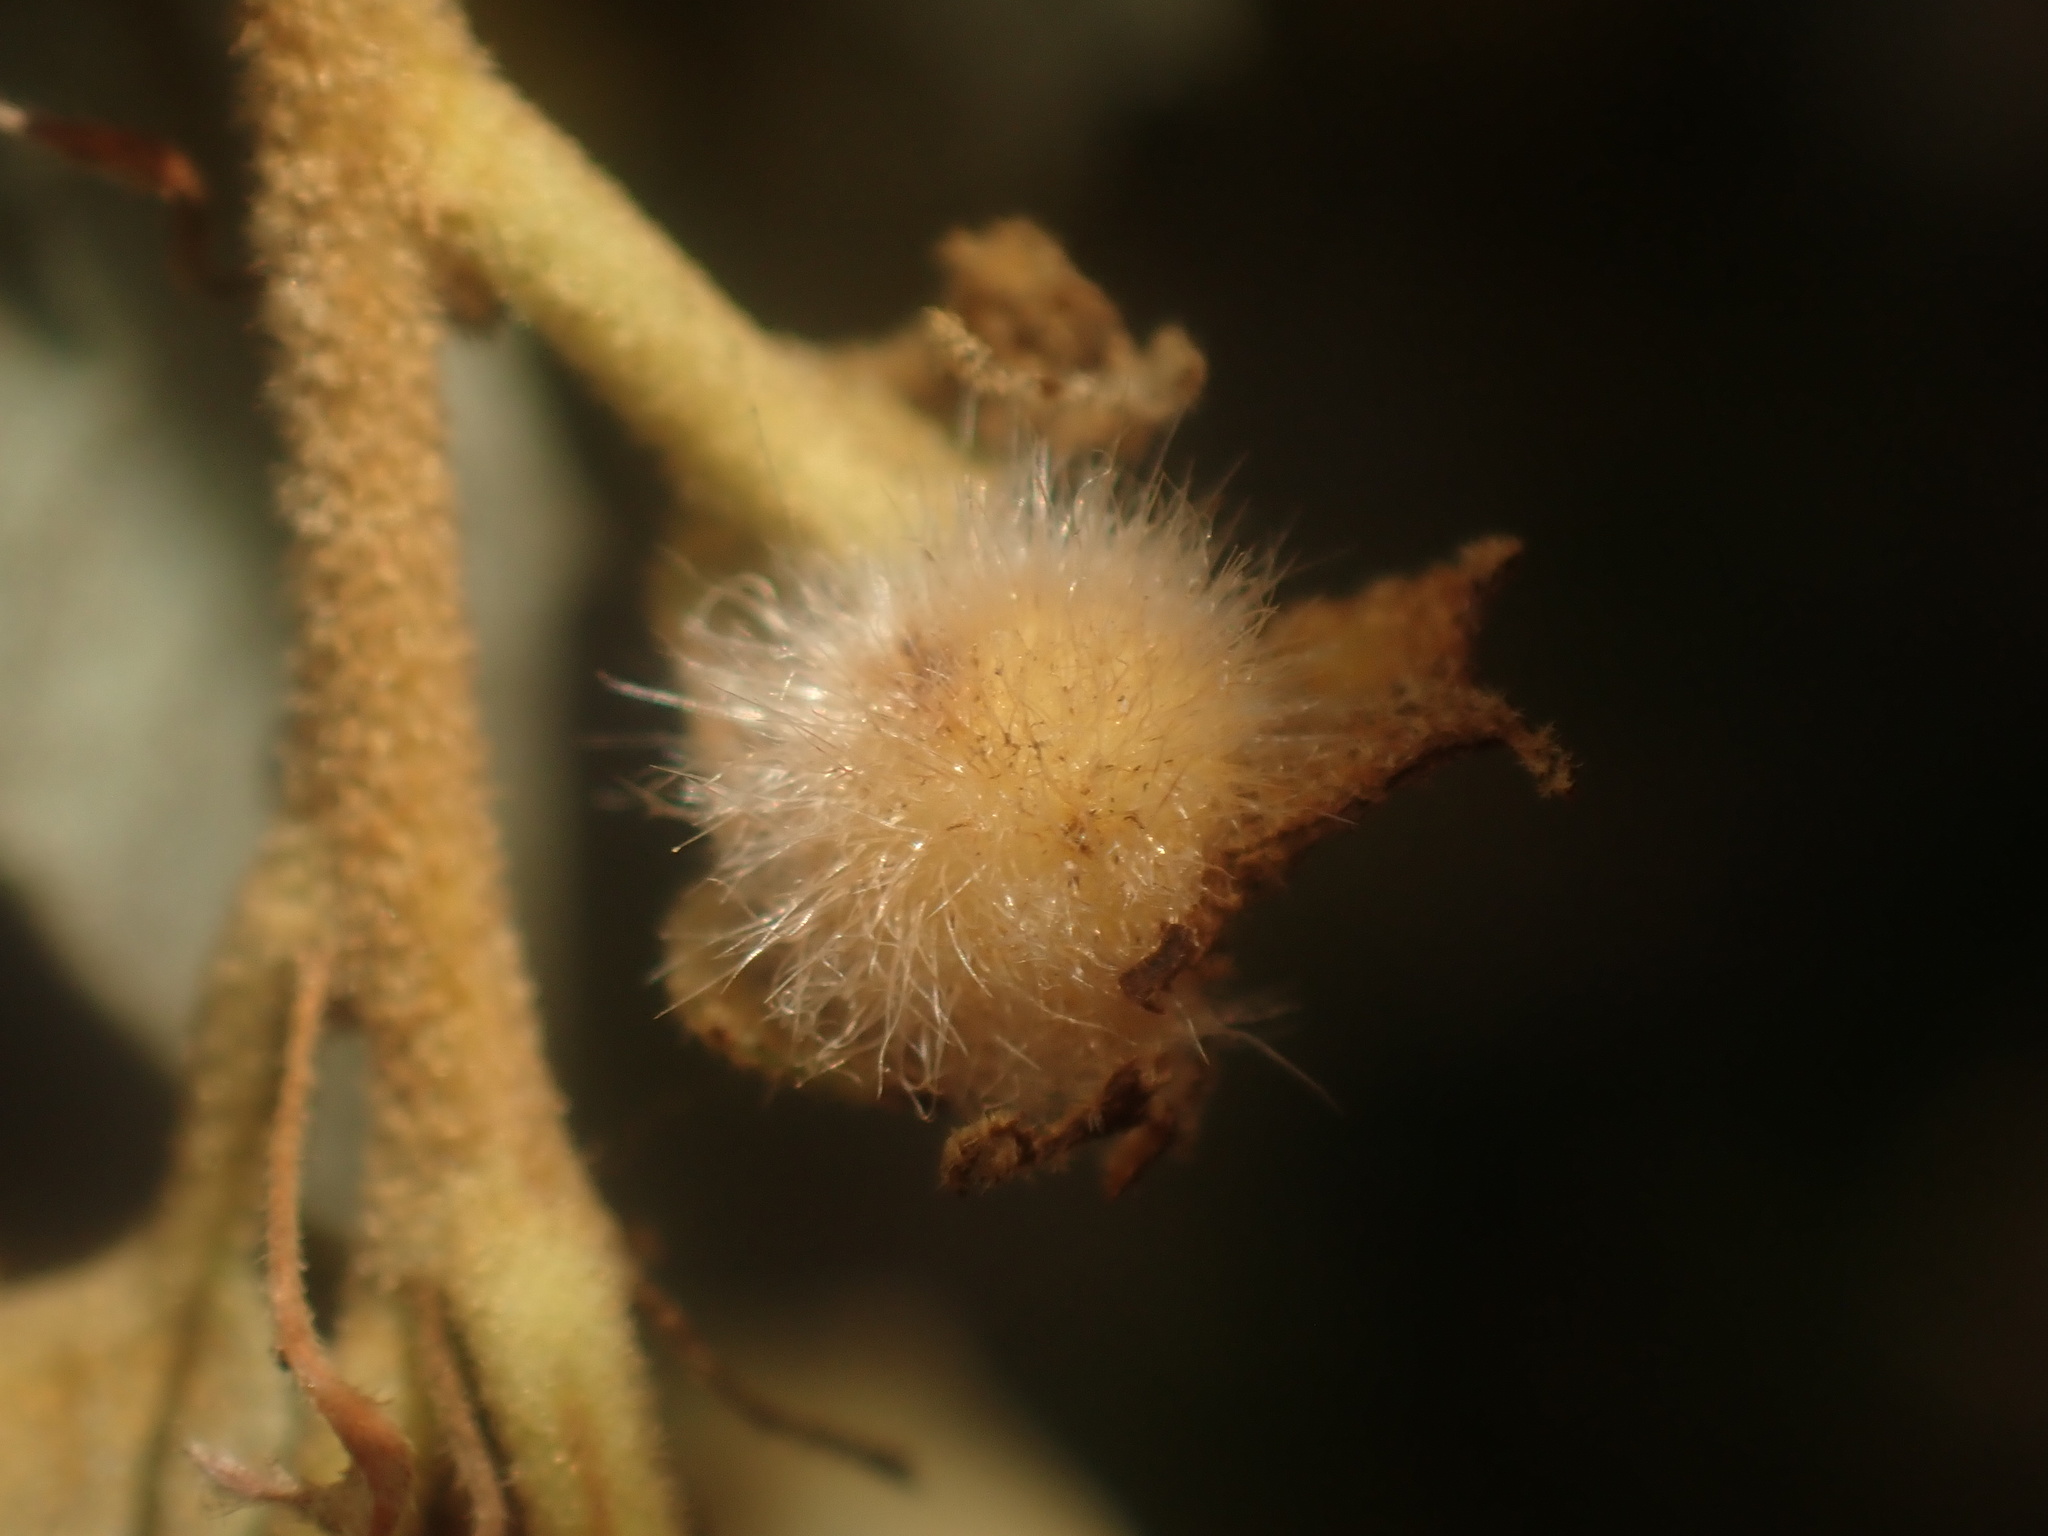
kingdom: Animalia
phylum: Arthropoda
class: Insecta
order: Hymenoptera
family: Cynipidae
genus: Disholandricus
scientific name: Disholandricus
